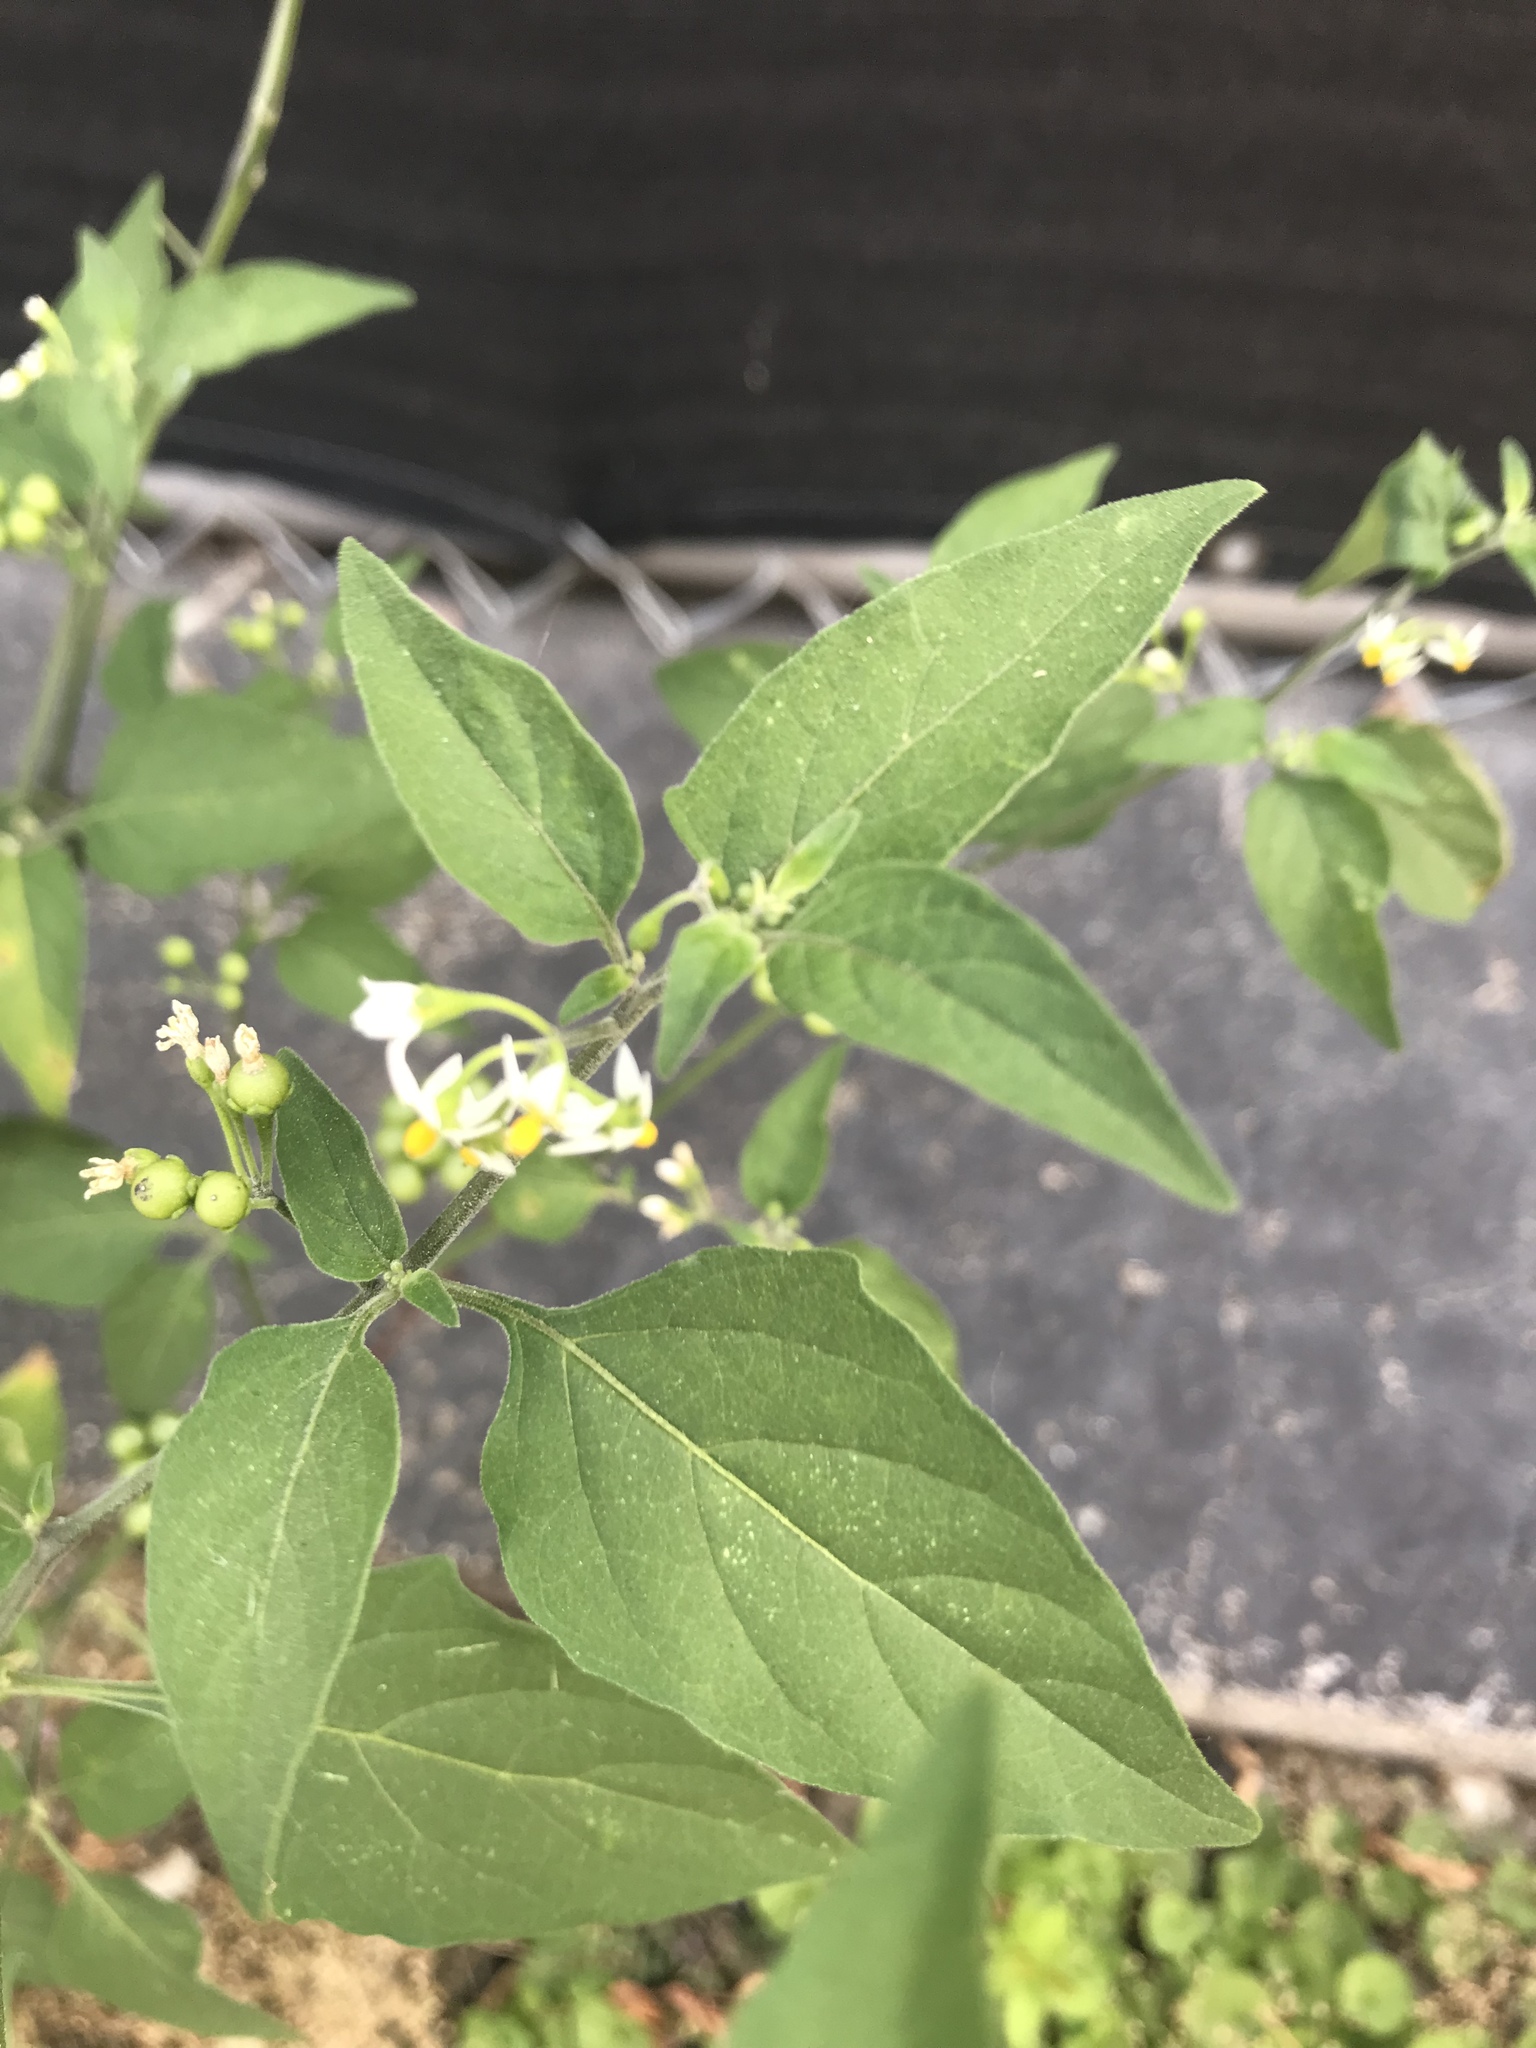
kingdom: Plantae
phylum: Tracheophyta
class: Magnoliopsida
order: Solanales
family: Solanaceae
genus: Solanum
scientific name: Solanum americanum
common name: American black nightshade
